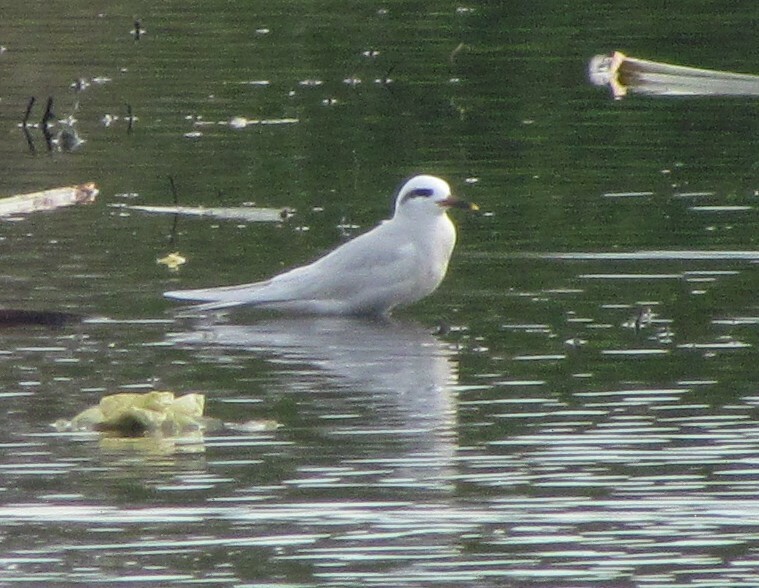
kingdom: Animalia
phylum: Chordata
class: Aves
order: Charadriiformes
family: Laridae
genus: Sterna
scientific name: Sterna trudeaui
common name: Snowy-crowned tern
